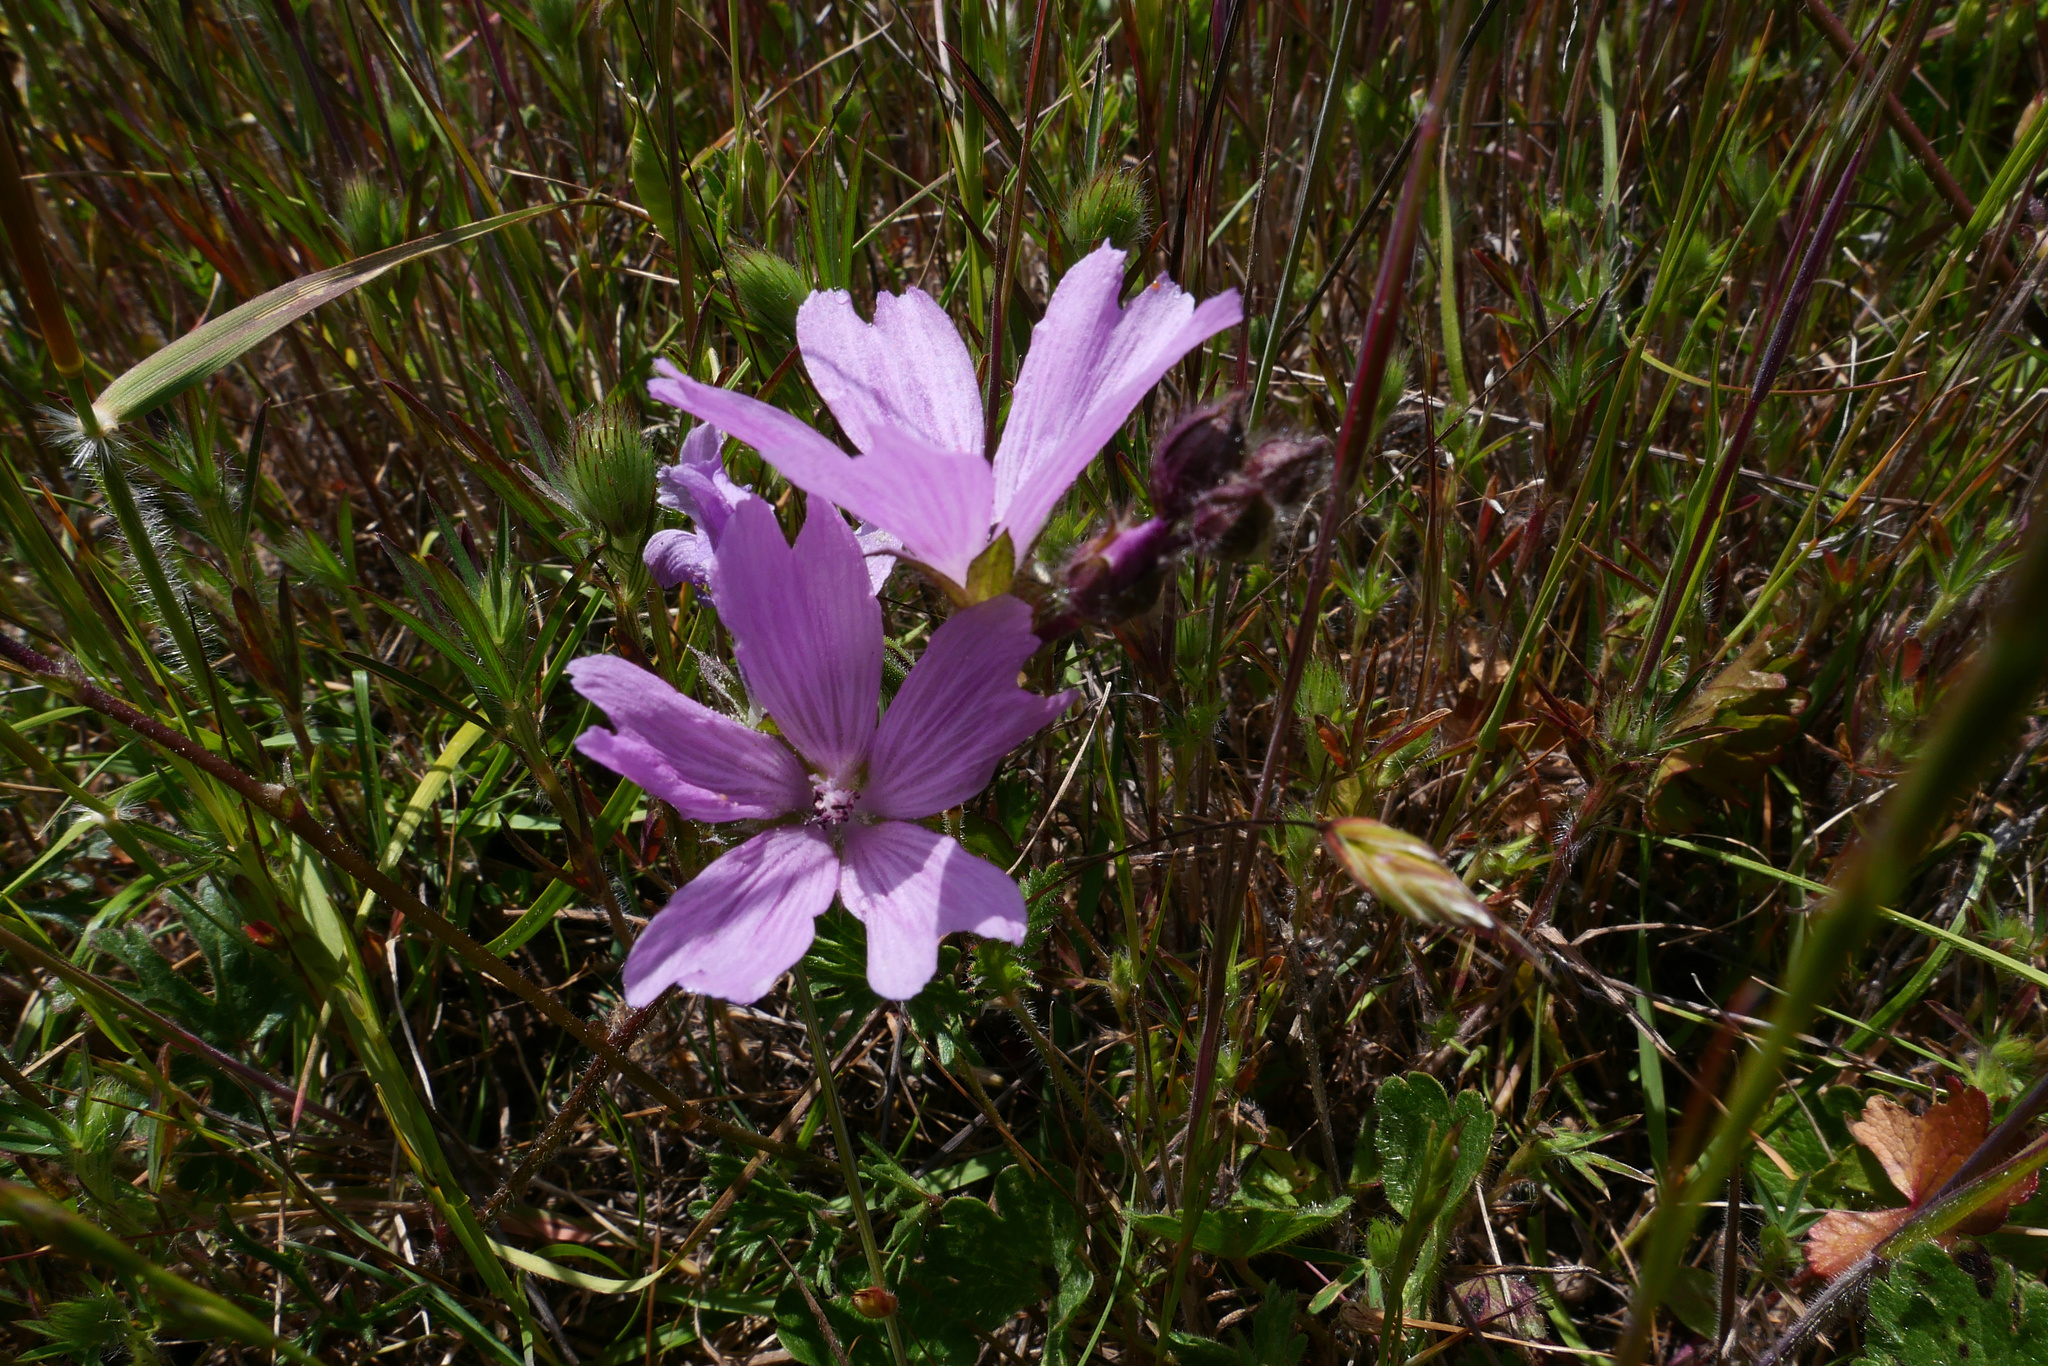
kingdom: Plantae
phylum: Tracheophyta
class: Magnoliopsida
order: Malvales
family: Malvaceae
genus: Sidalcea
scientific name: Sidalcea malviflora
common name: Greek mallow
